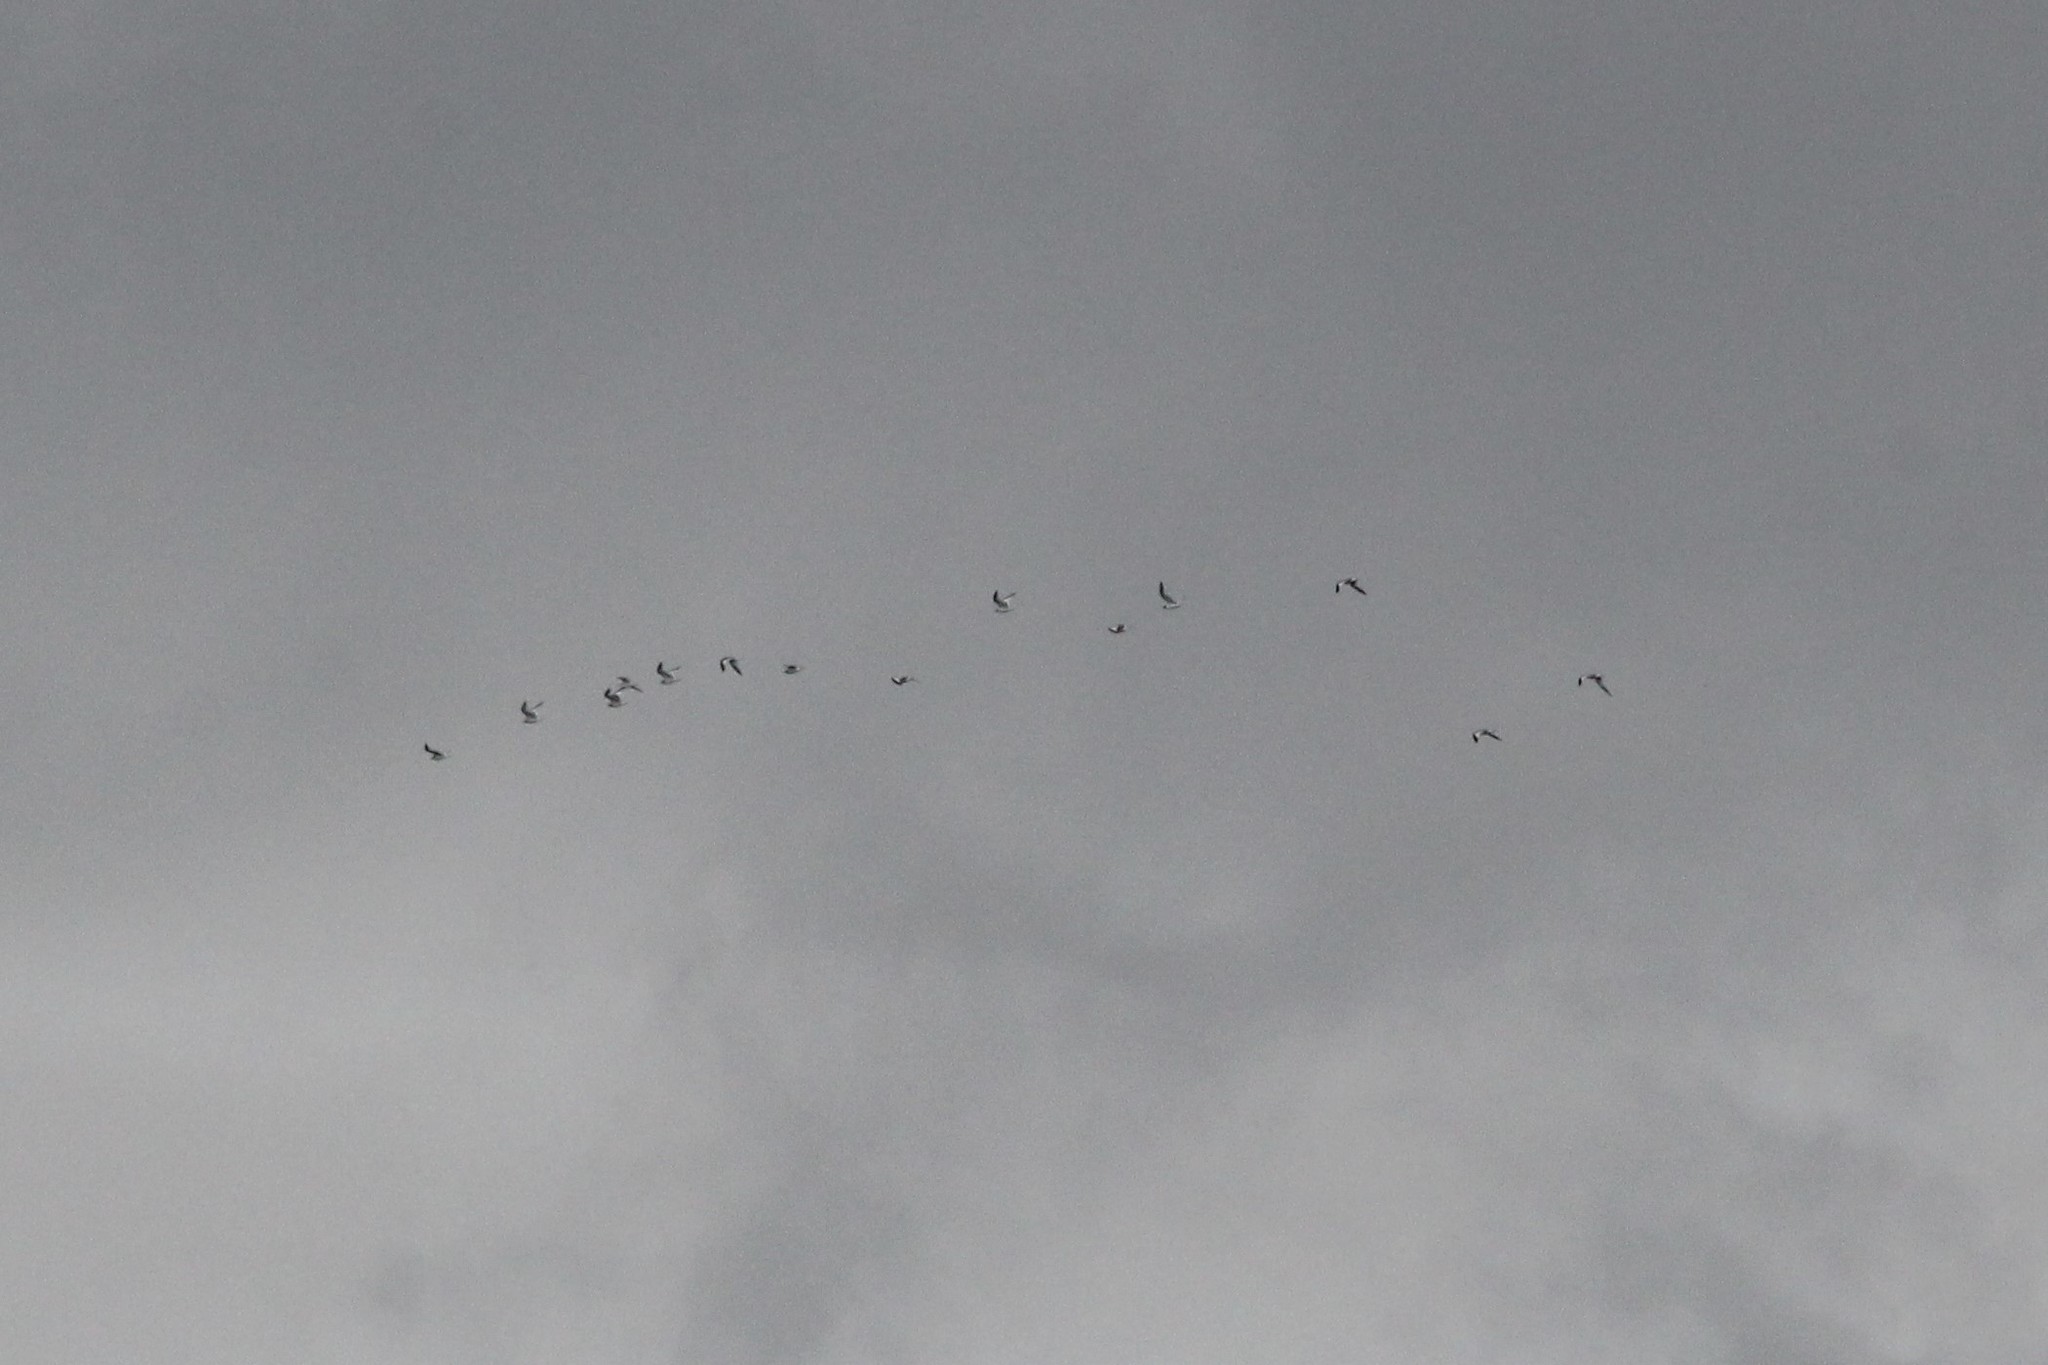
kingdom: Animalia
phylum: Chordata
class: Aves
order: Charadriiformes
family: Laridae
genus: Xema
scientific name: Xema sabini
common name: Sabine's gull
